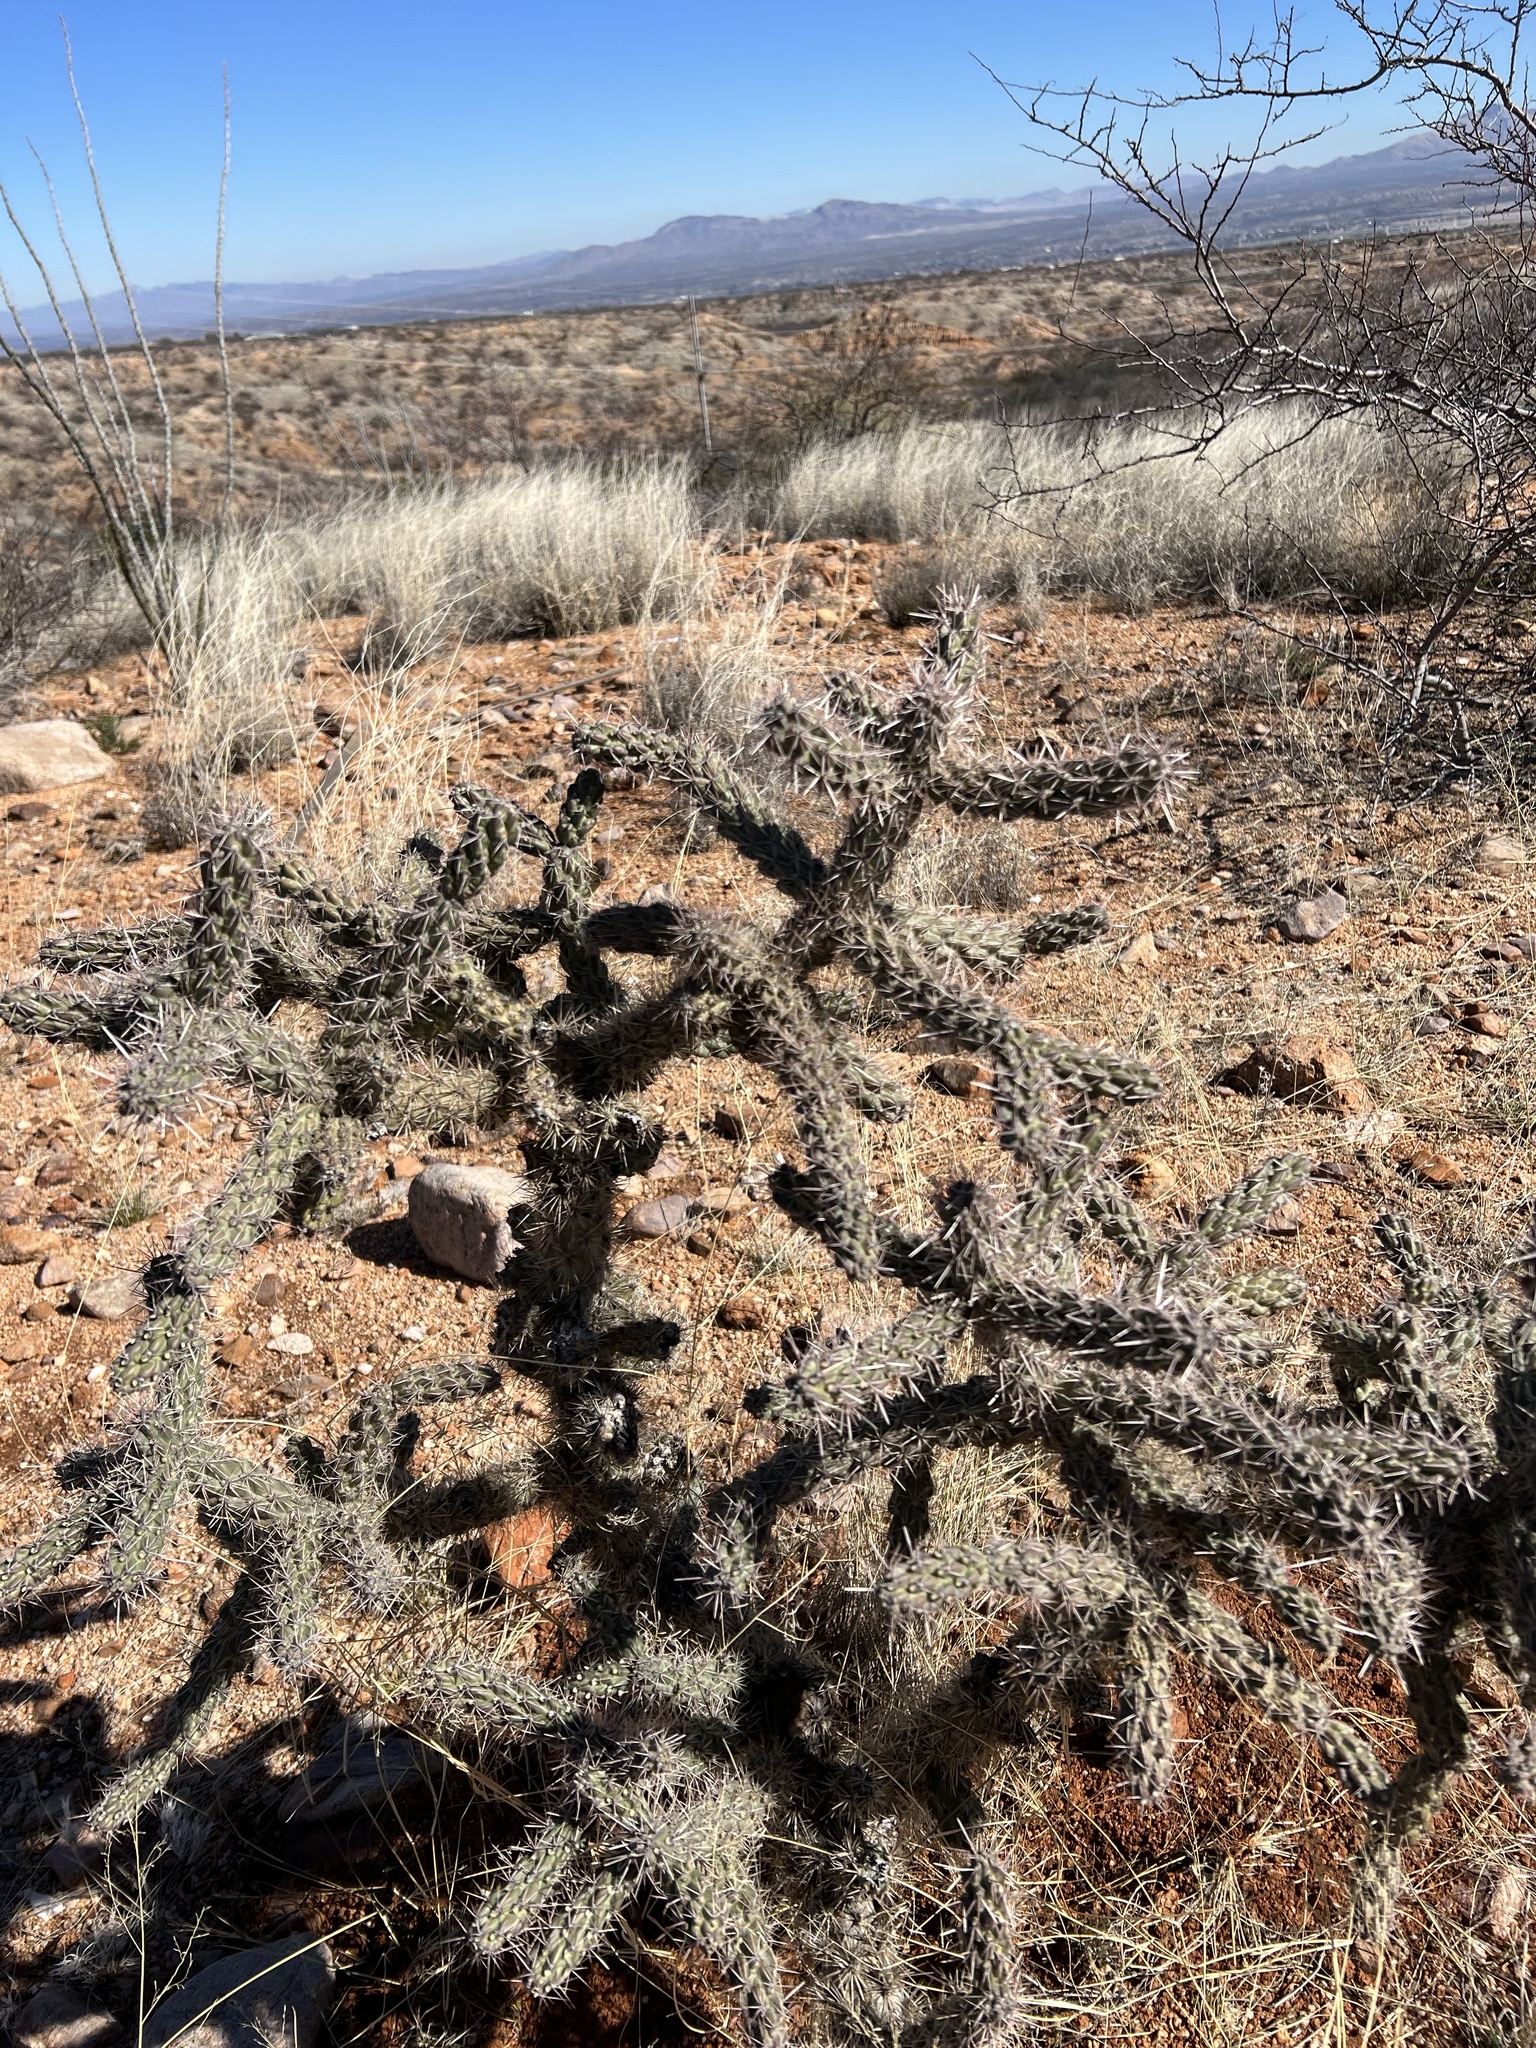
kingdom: Plantae
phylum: Tracheophyta
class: Magnoliopsida
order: Caryophyllales
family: Cactaceae
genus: Cylindropuntia
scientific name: Cylindropuntia imbricata
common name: Candelabrum cactus
